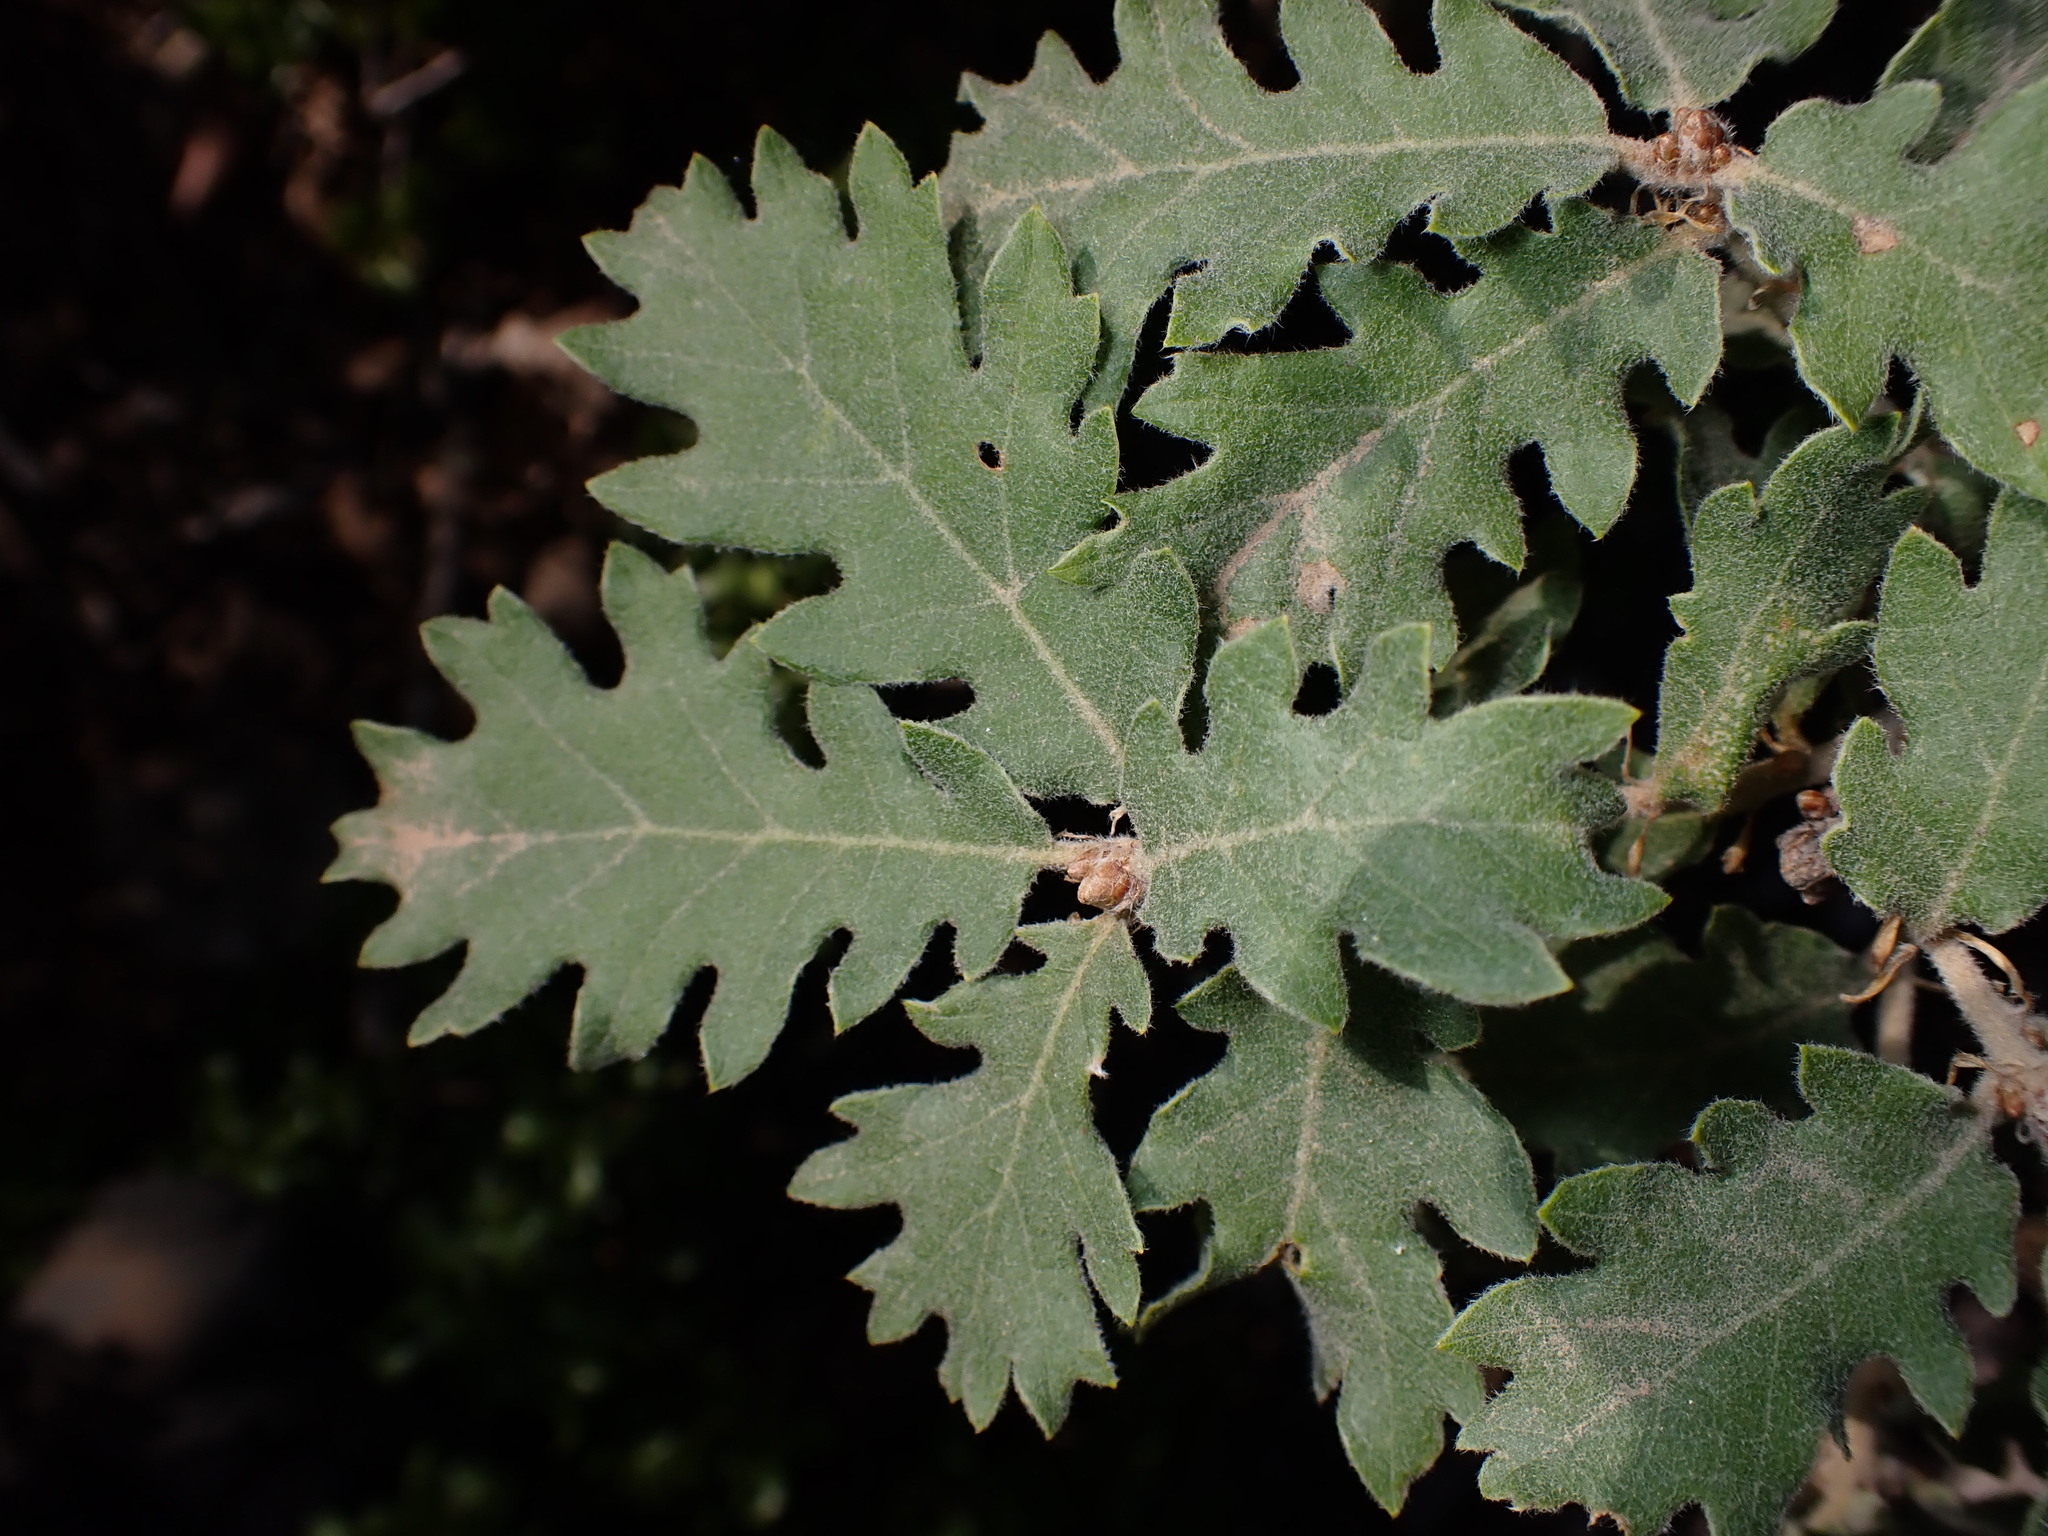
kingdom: Plantae
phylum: Tracheophyta
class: Magnoliopsida
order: Fagales
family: Fagaceae
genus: Quercus
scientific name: Quercus pubescens
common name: Downy oak
